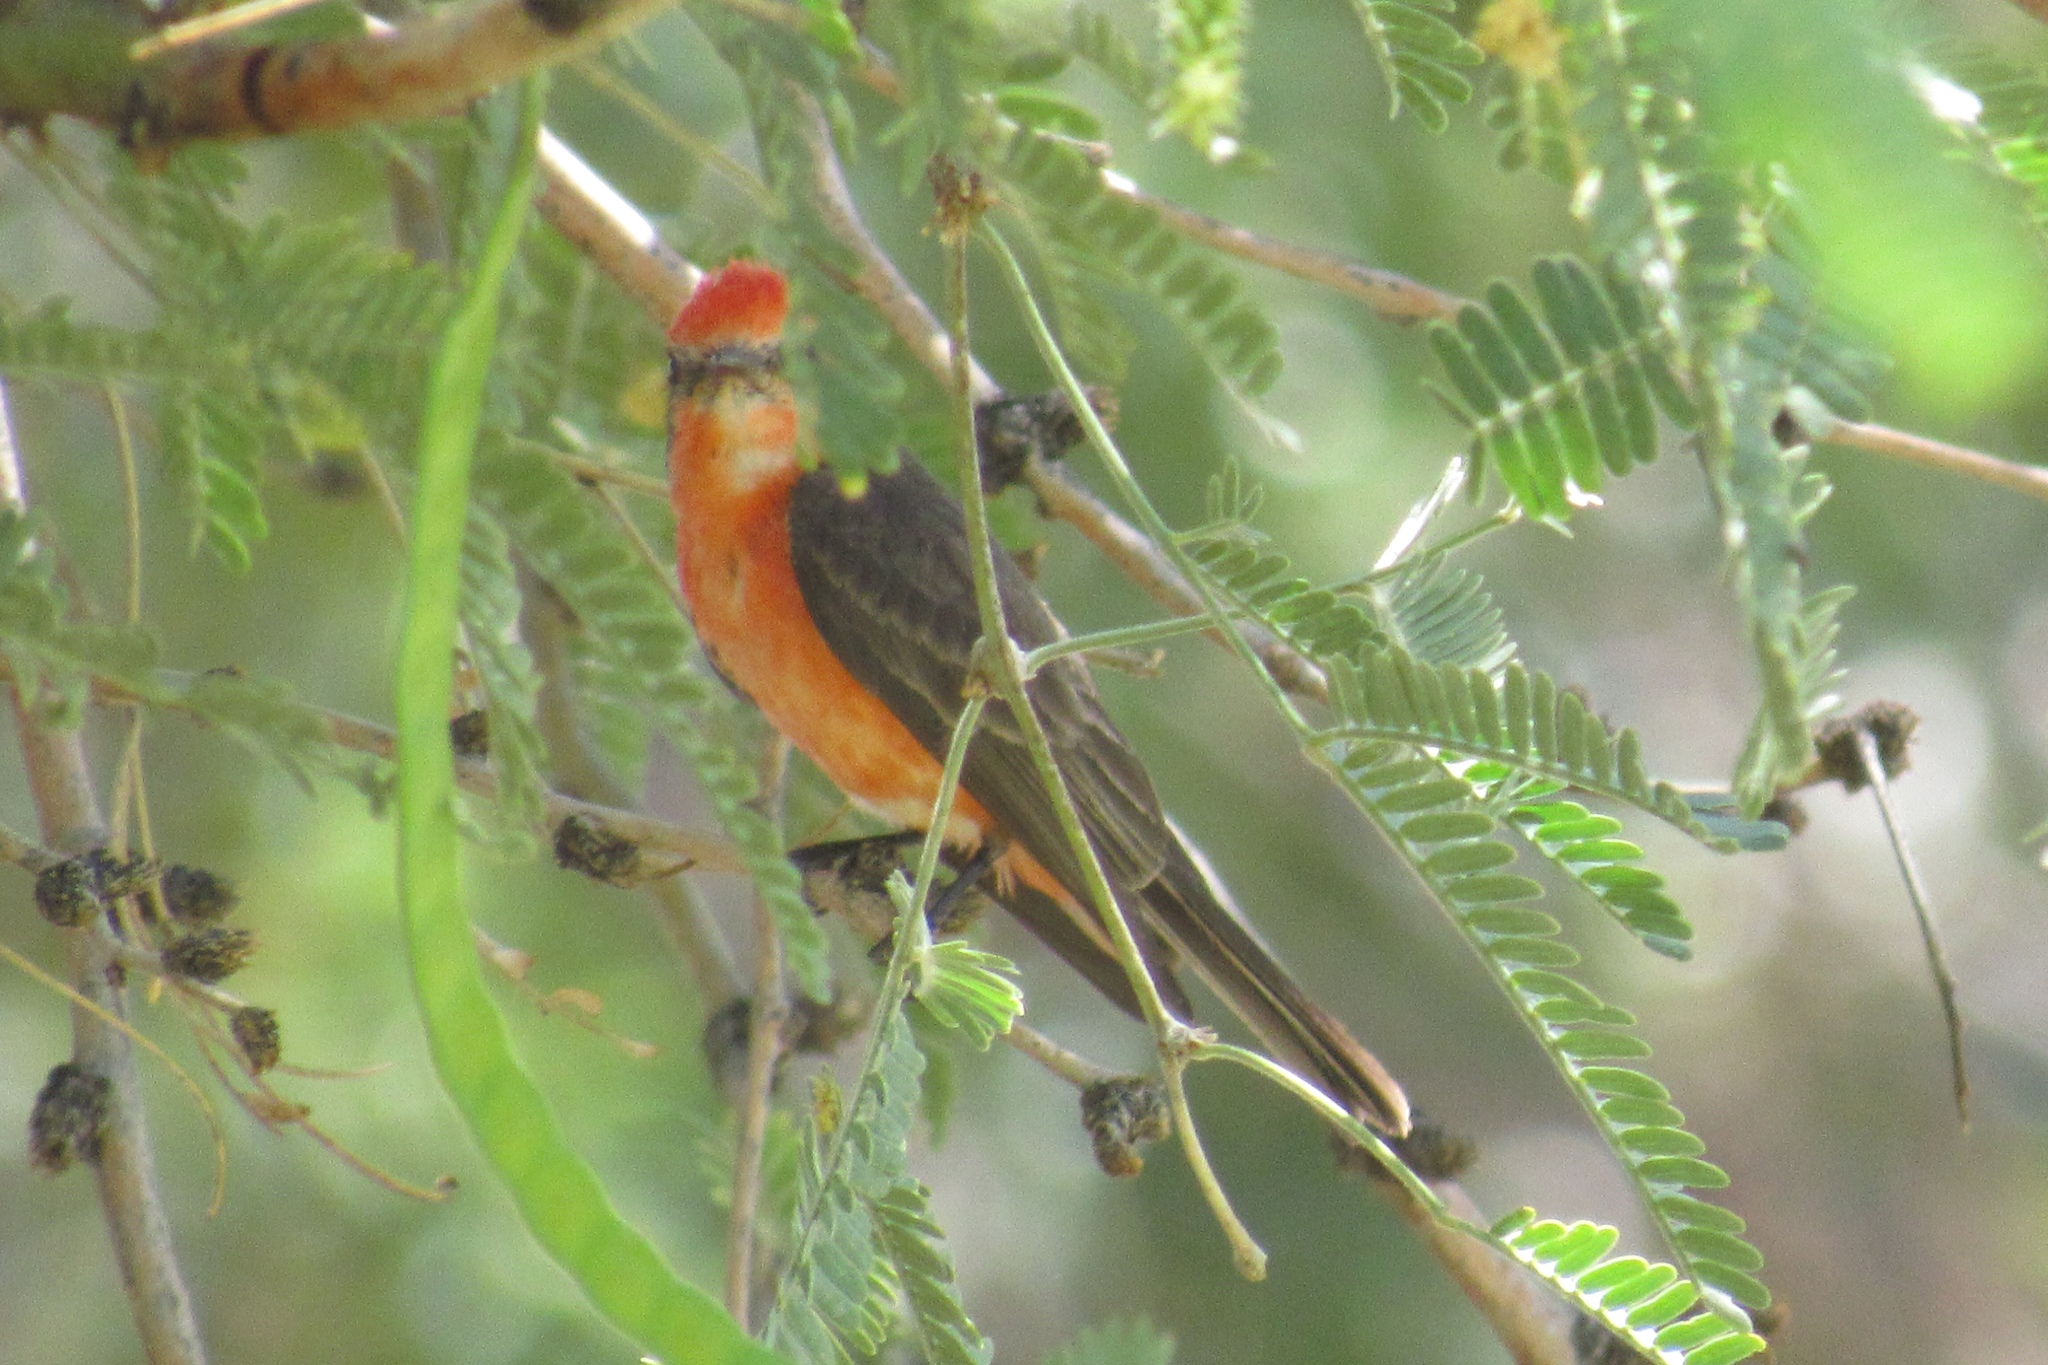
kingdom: Animalia
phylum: Chordata
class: Aves
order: Passeriformes
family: Tyrannidae
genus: Pyrocephalus
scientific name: Pyrocephalus rubinus
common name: Vermilion flycatcher
